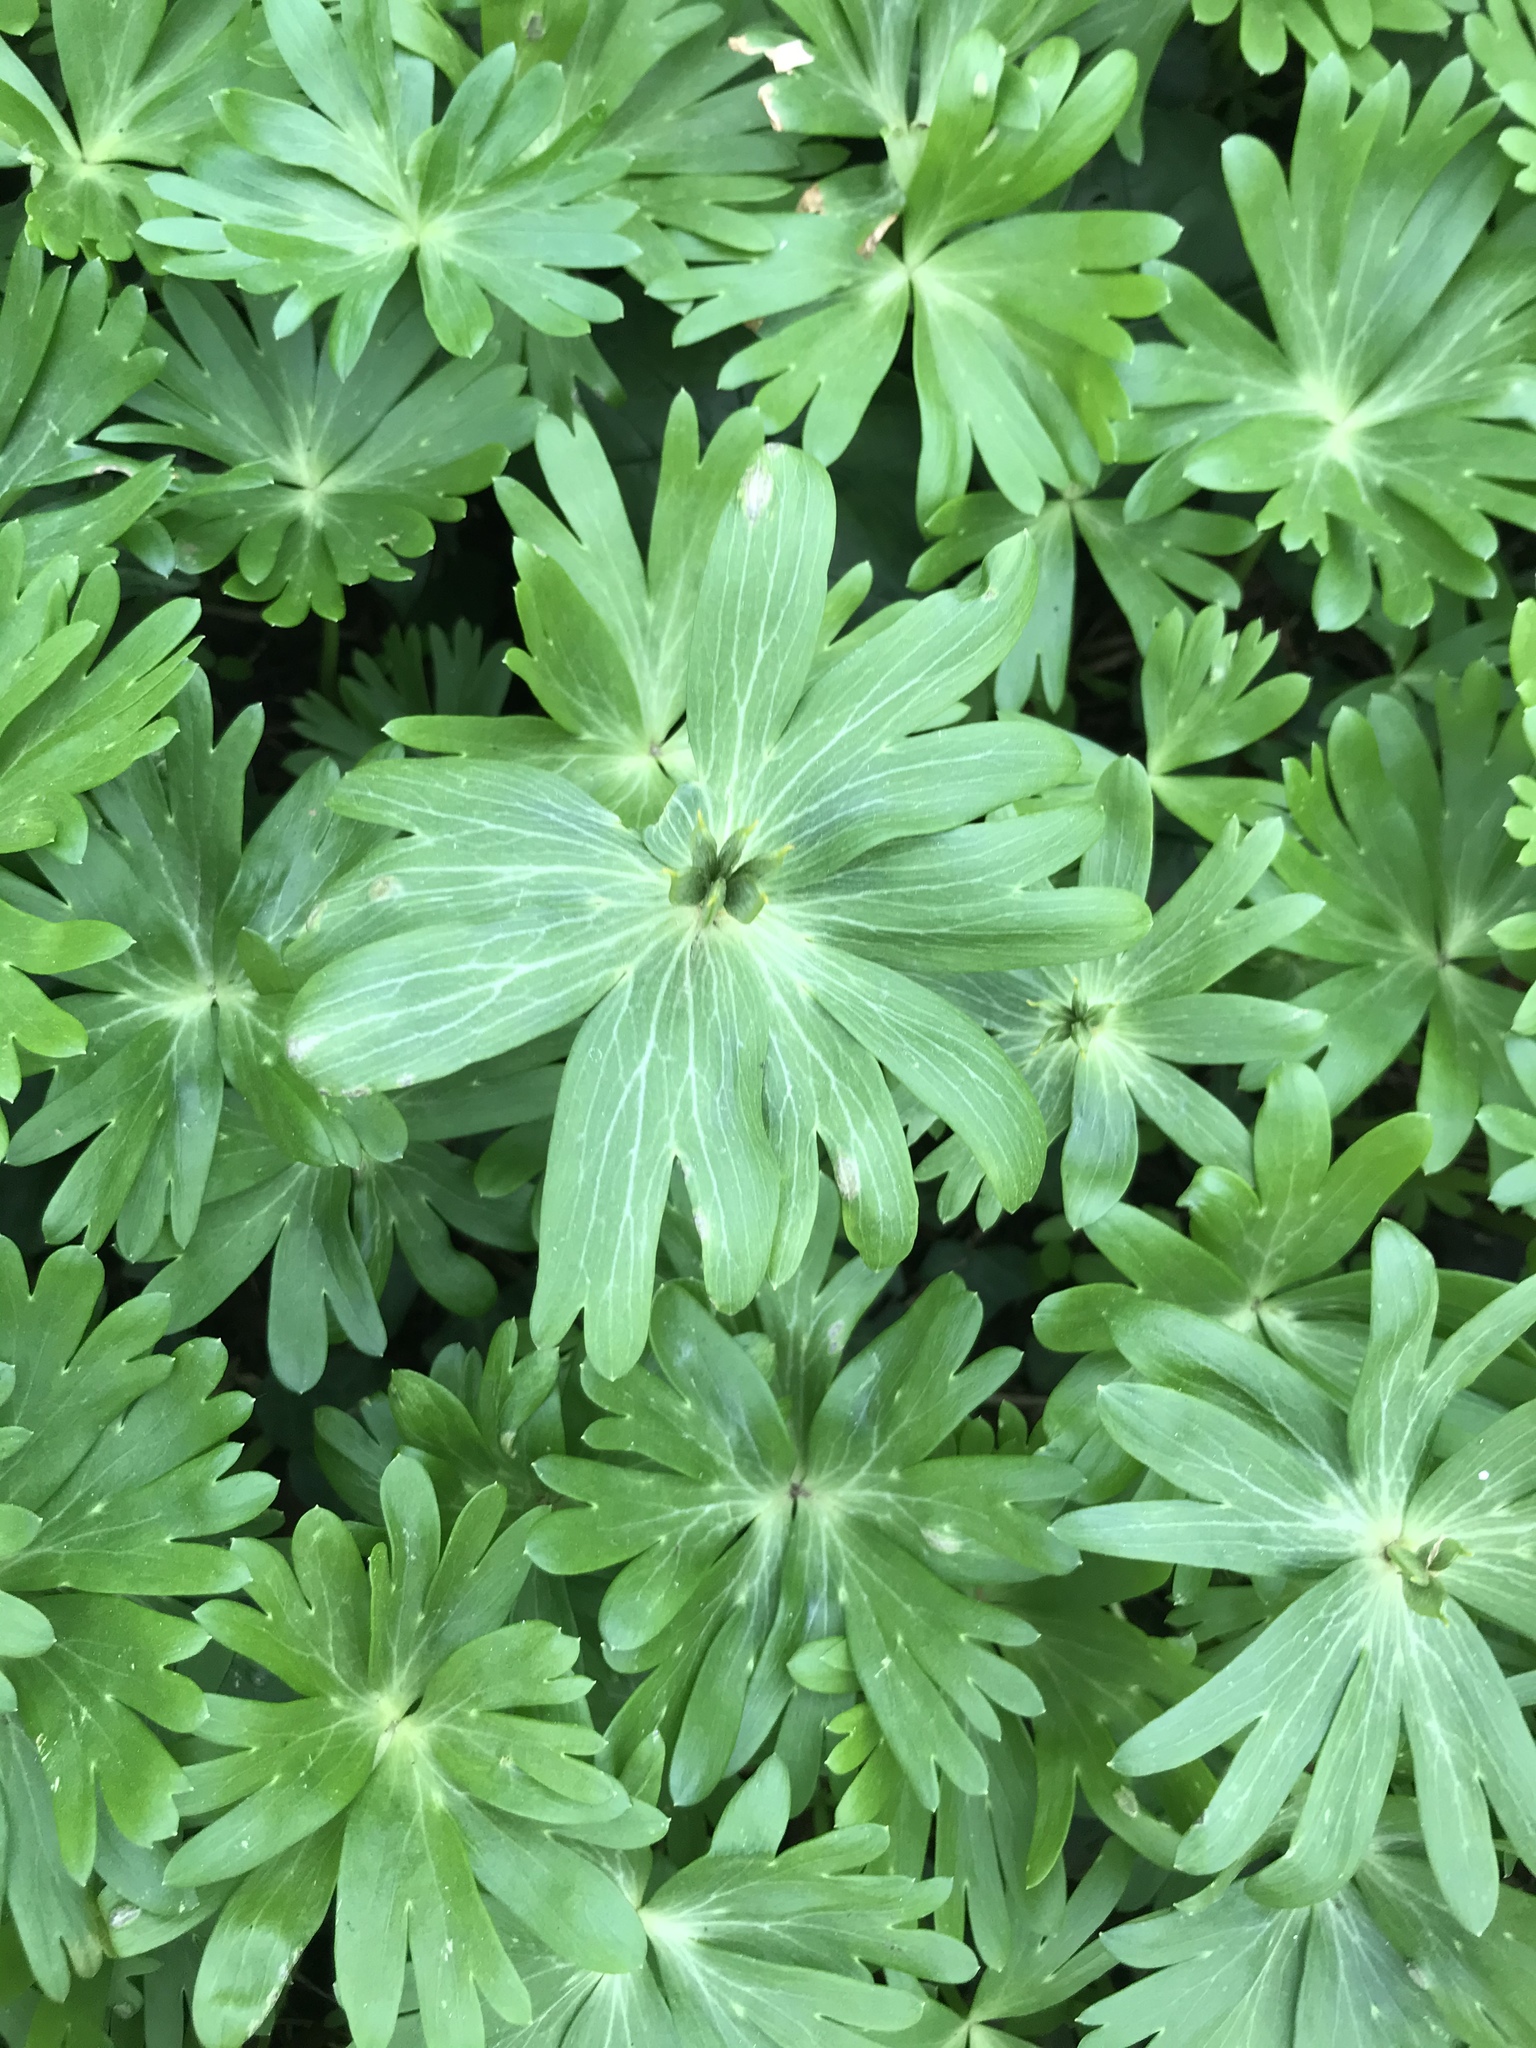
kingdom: Plantae
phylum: Tracheophyta
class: Magnoliopsida
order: Ranunculales
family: Ranunculaceae
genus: Eranthis
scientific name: Eranthis hyemalis
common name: Winter aconite
